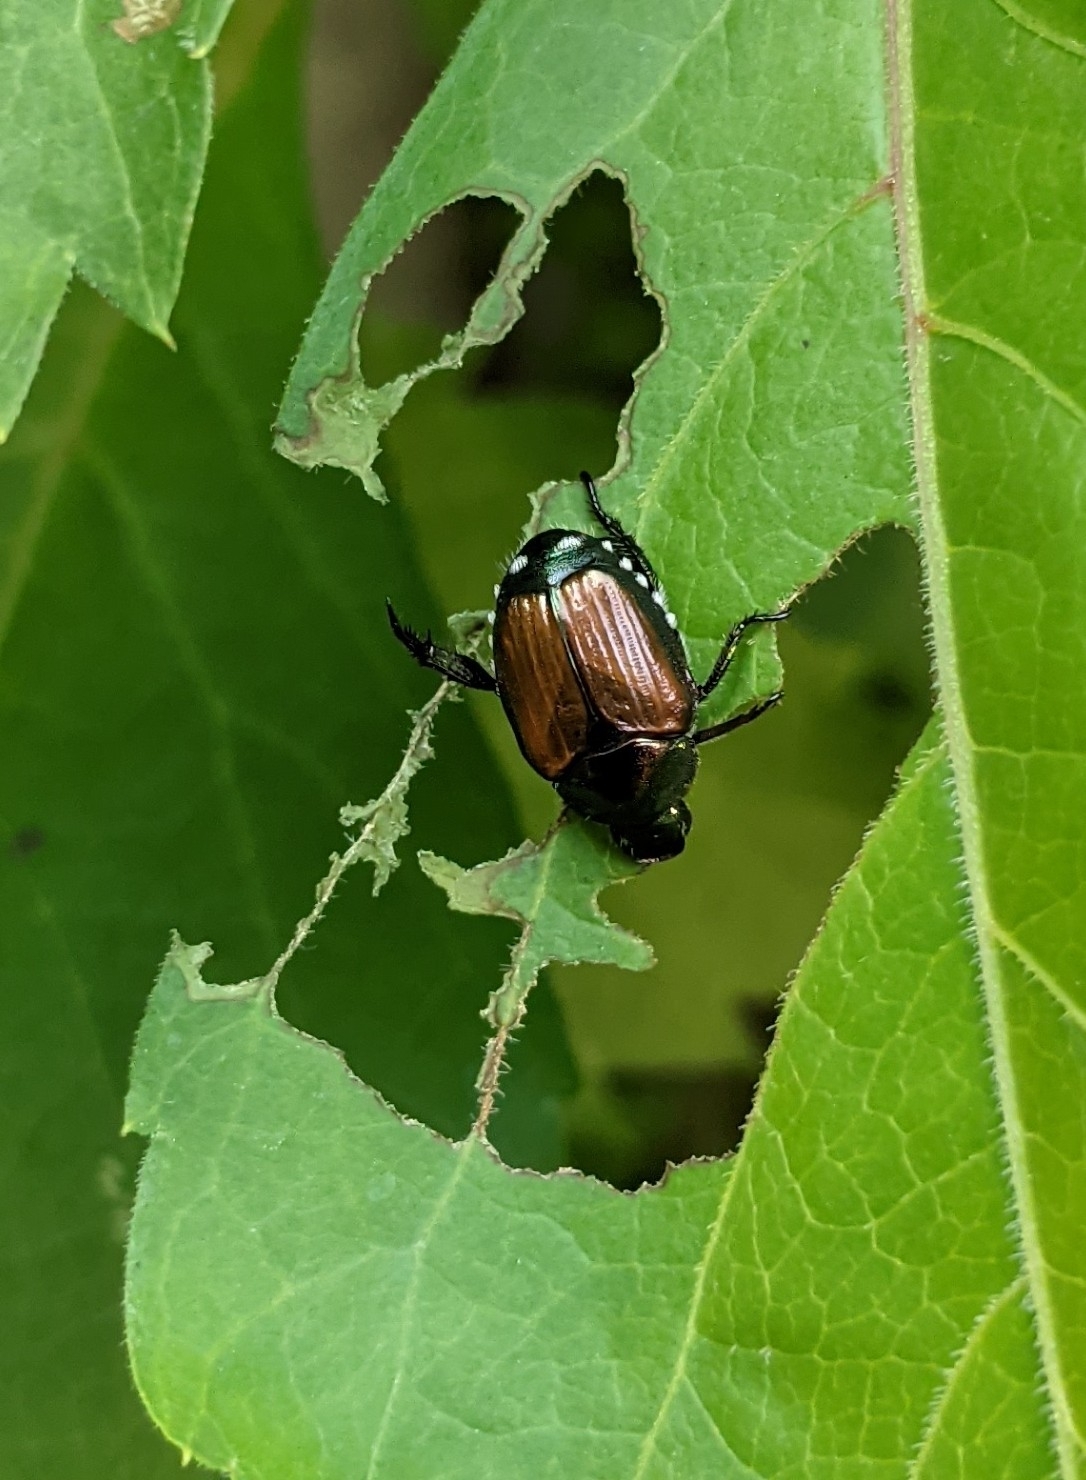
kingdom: Animalia
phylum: Arthropoda
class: Insecta
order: Coleoptera
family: Scarabaeidae
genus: Popillia
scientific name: Popillia japonica
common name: Japanese beetle
